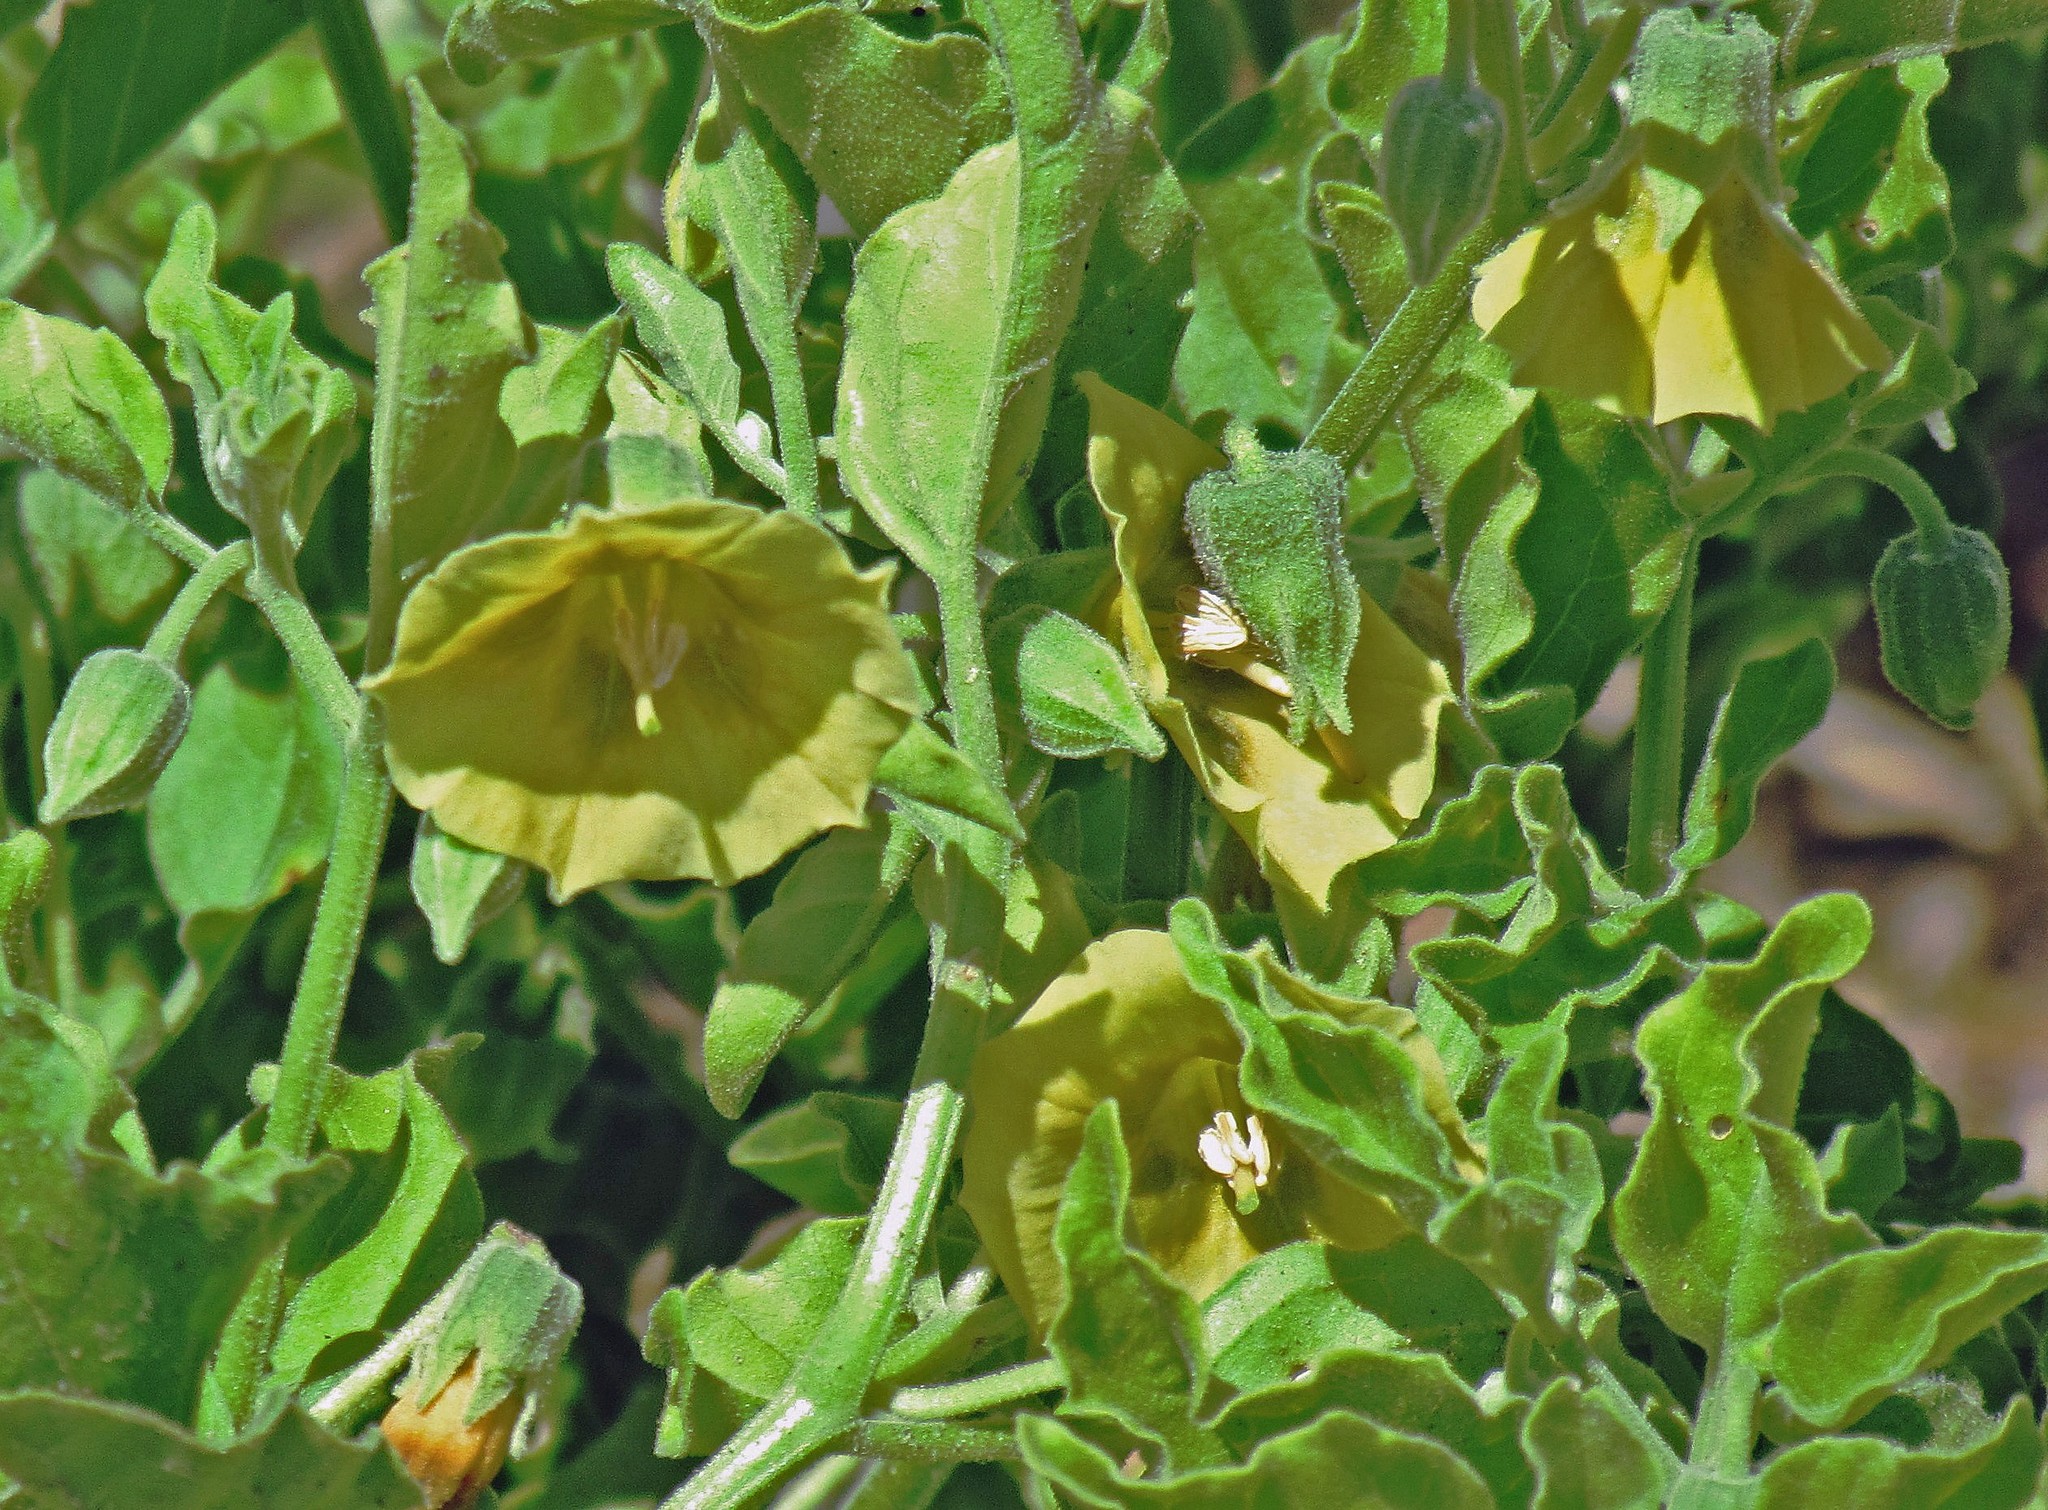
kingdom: Plantae
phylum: Tracheophyta
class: Magnoliopsida
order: Solanales
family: Solanaceae
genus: Physalis
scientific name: Physalis viscosa
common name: Stellate ground-cherry
